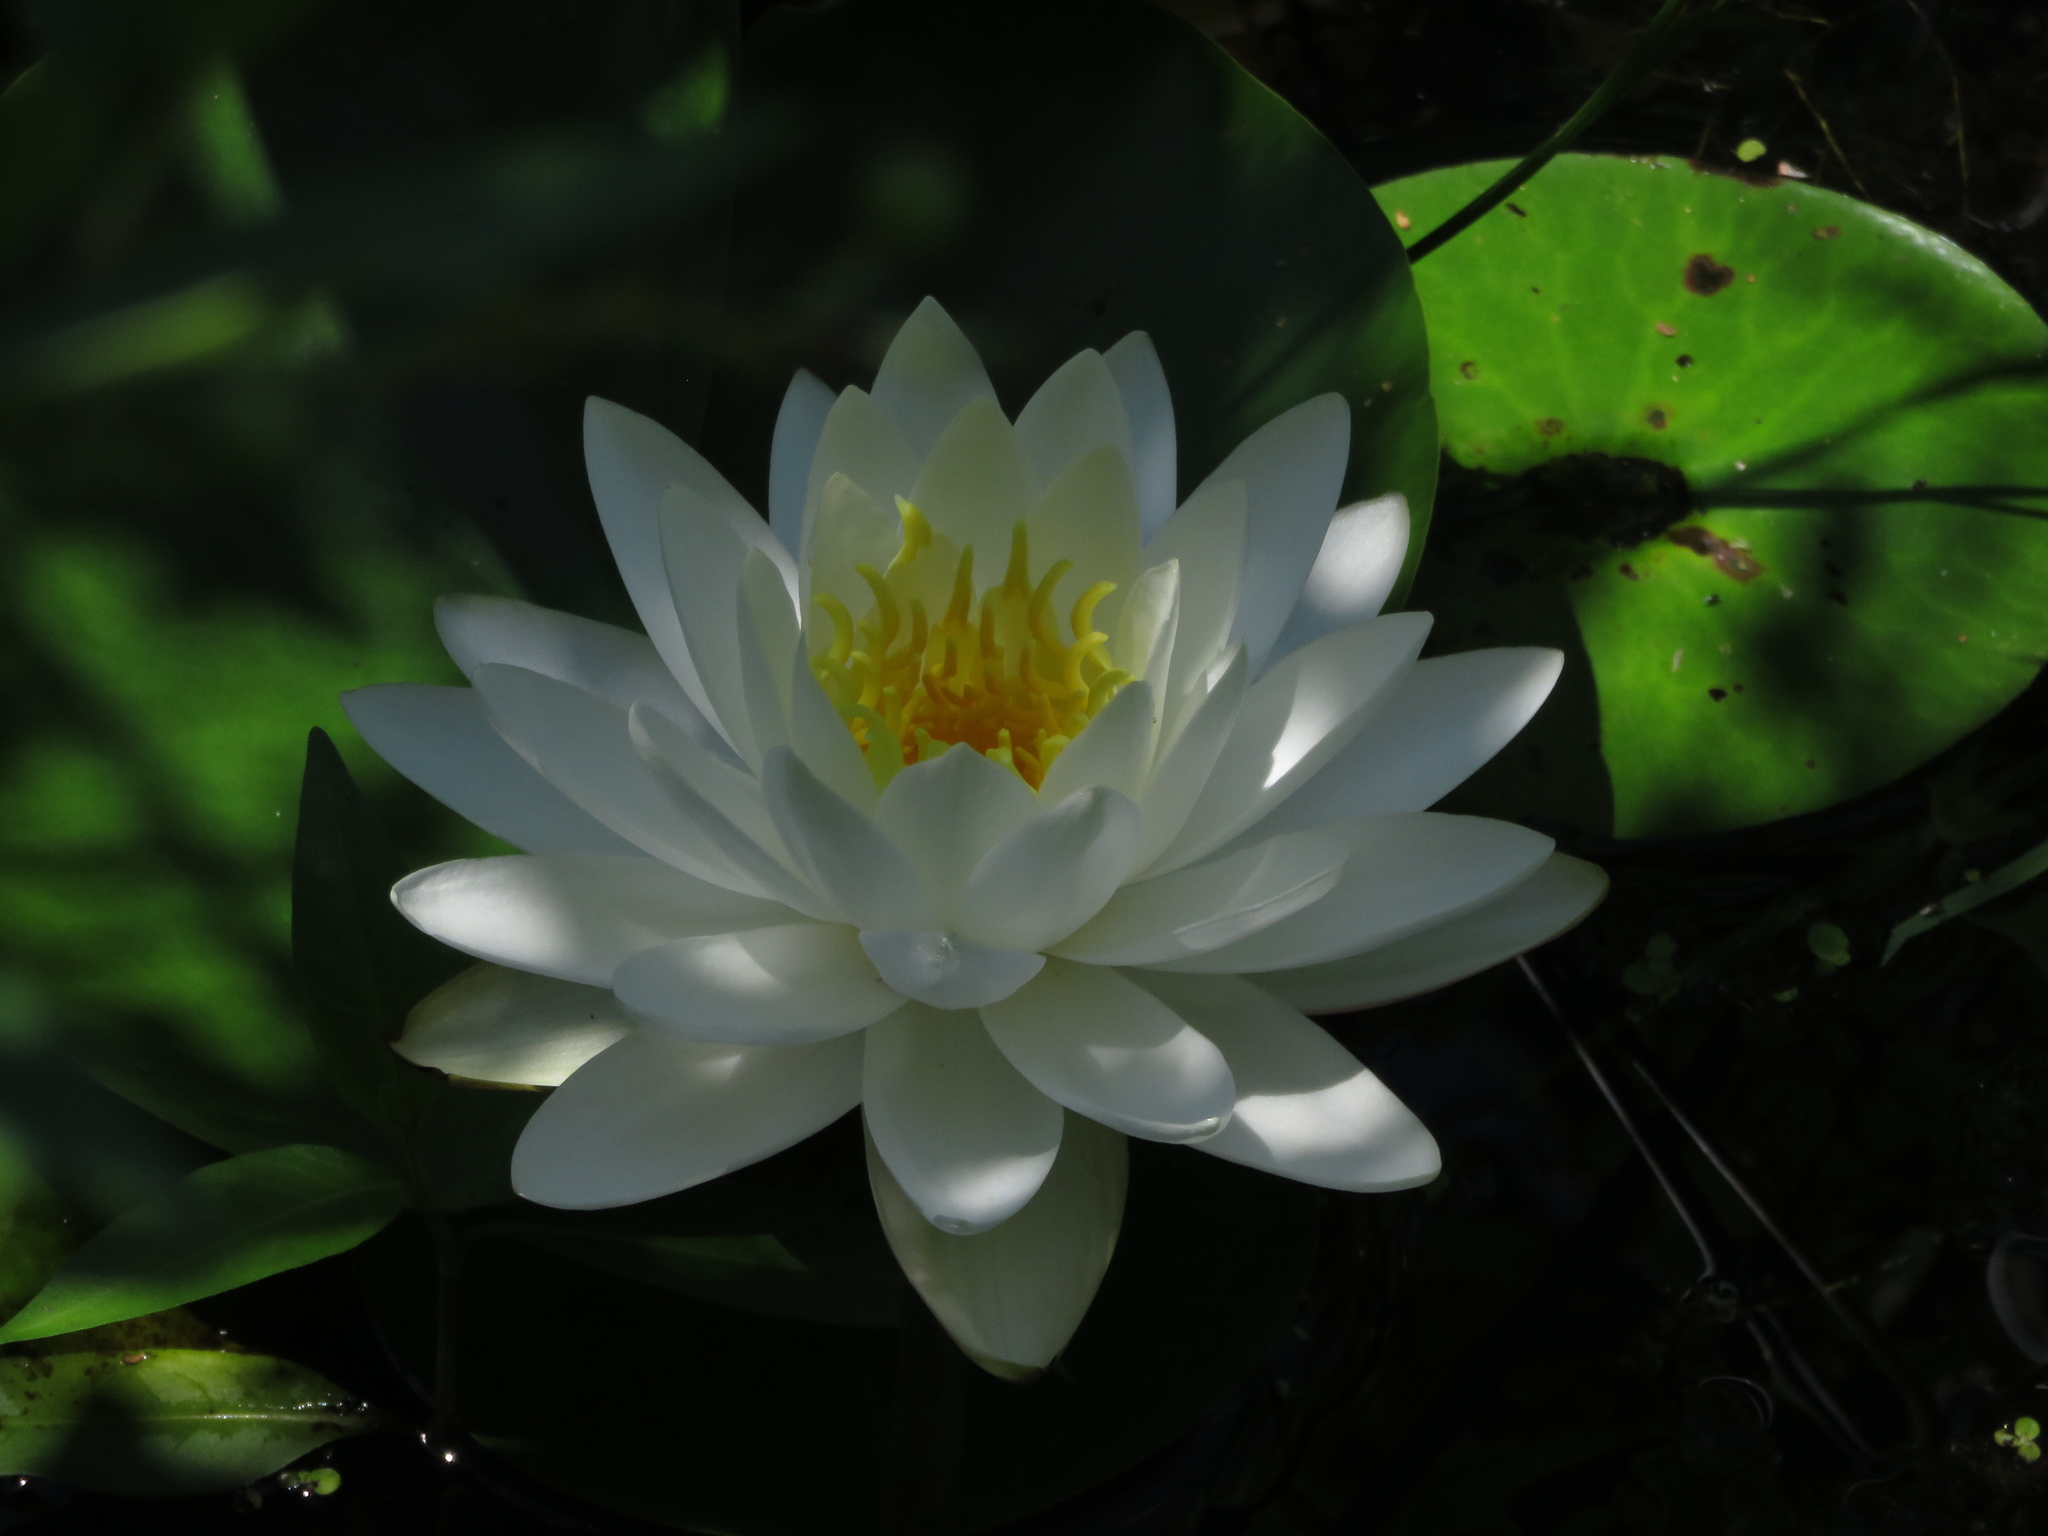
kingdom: Plantae
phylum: Tracheophyta
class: Magnoliopsida
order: Nymphaeales
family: Nymphaeaceae
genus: Nymphaea
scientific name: Nymphaea odorata
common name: Fragrant water-lily
